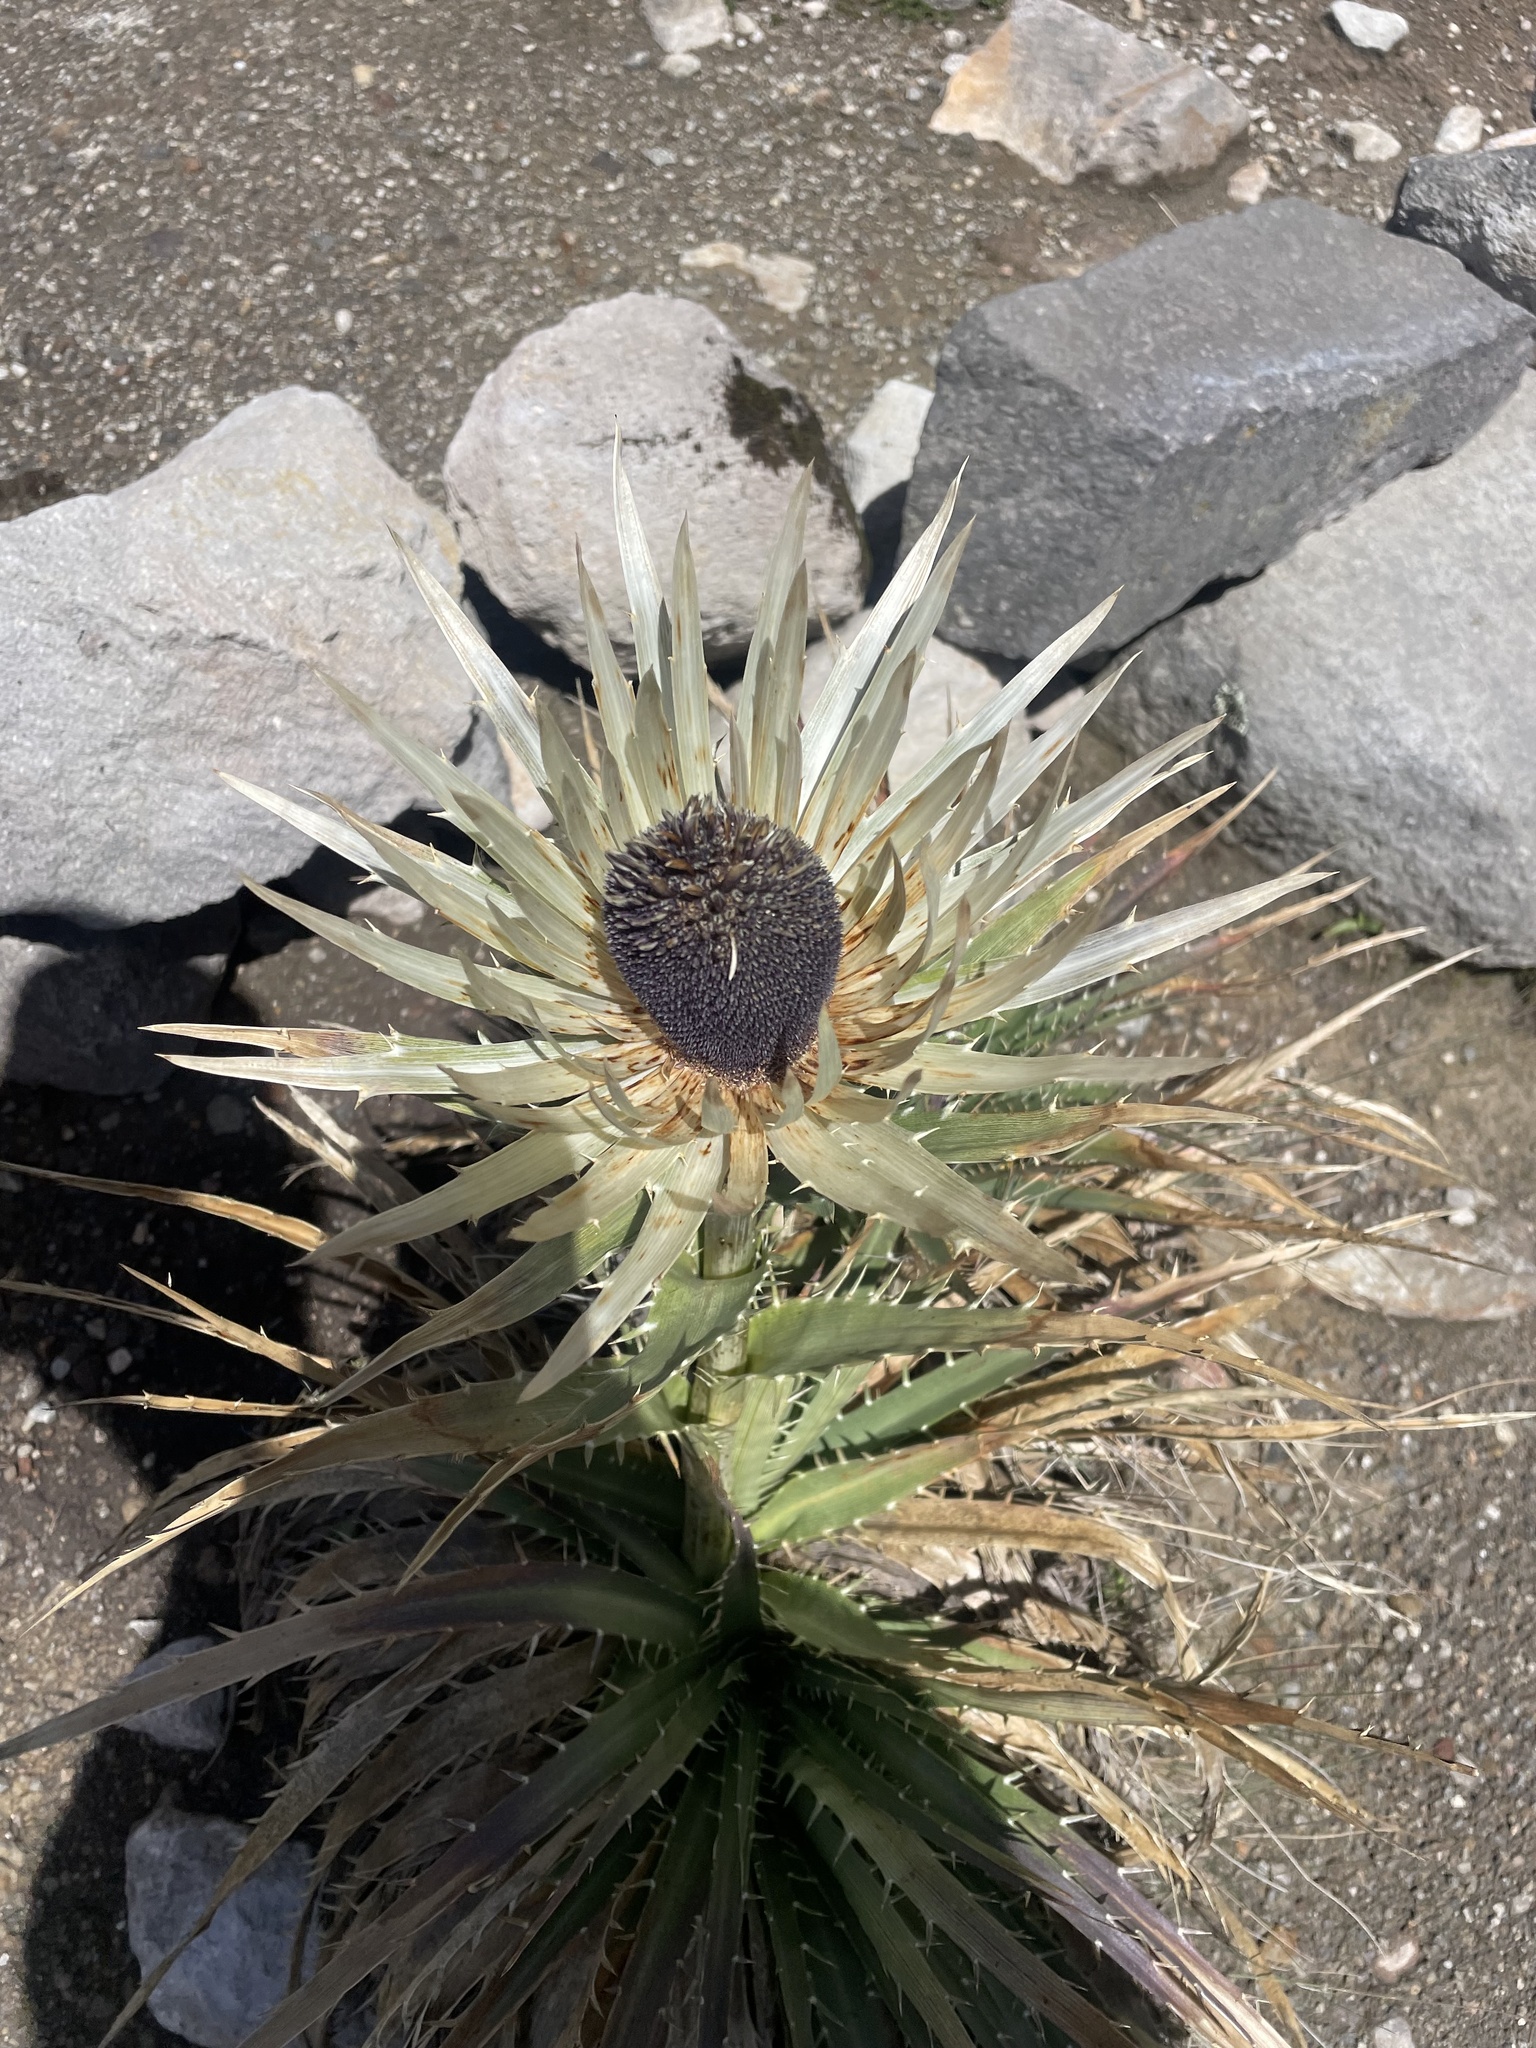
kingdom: Plantae
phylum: Tracheophyta
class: Magnoliopsida
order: Apiales
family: Apiaceae
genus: Eryngium
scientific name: Eryngium proteiflorum
